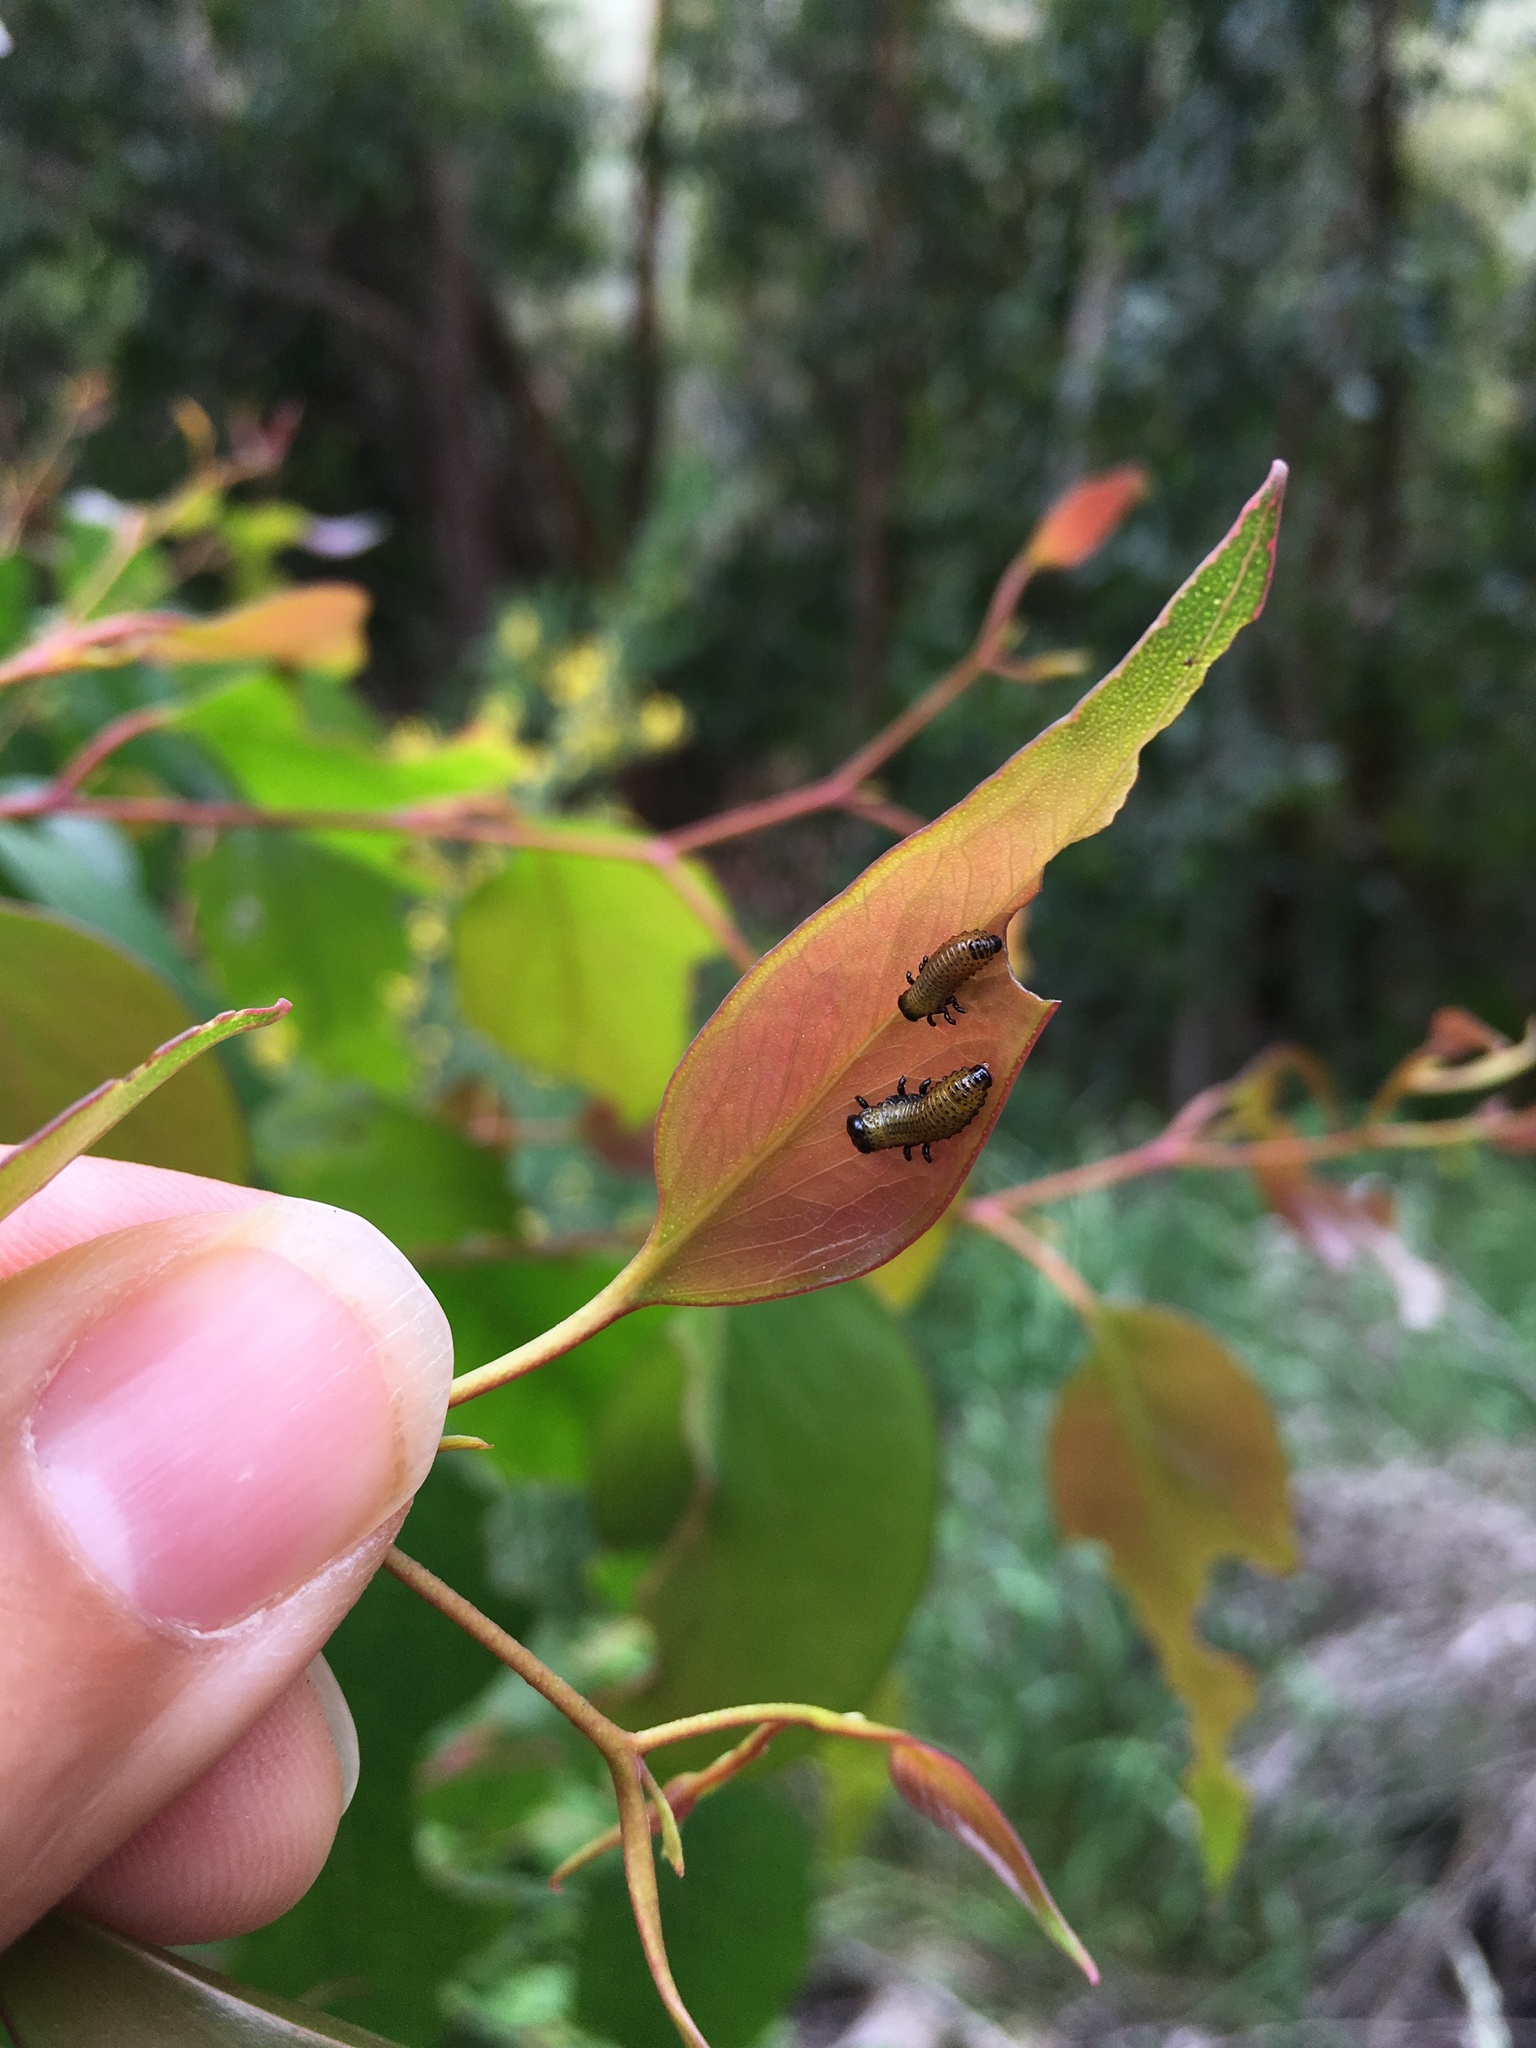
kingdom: Animalia
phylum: Arthropoda
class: Insecta
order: Coleoptera
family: Chrysomelidae
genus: Paropsis
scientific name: Paropsis charybdis
